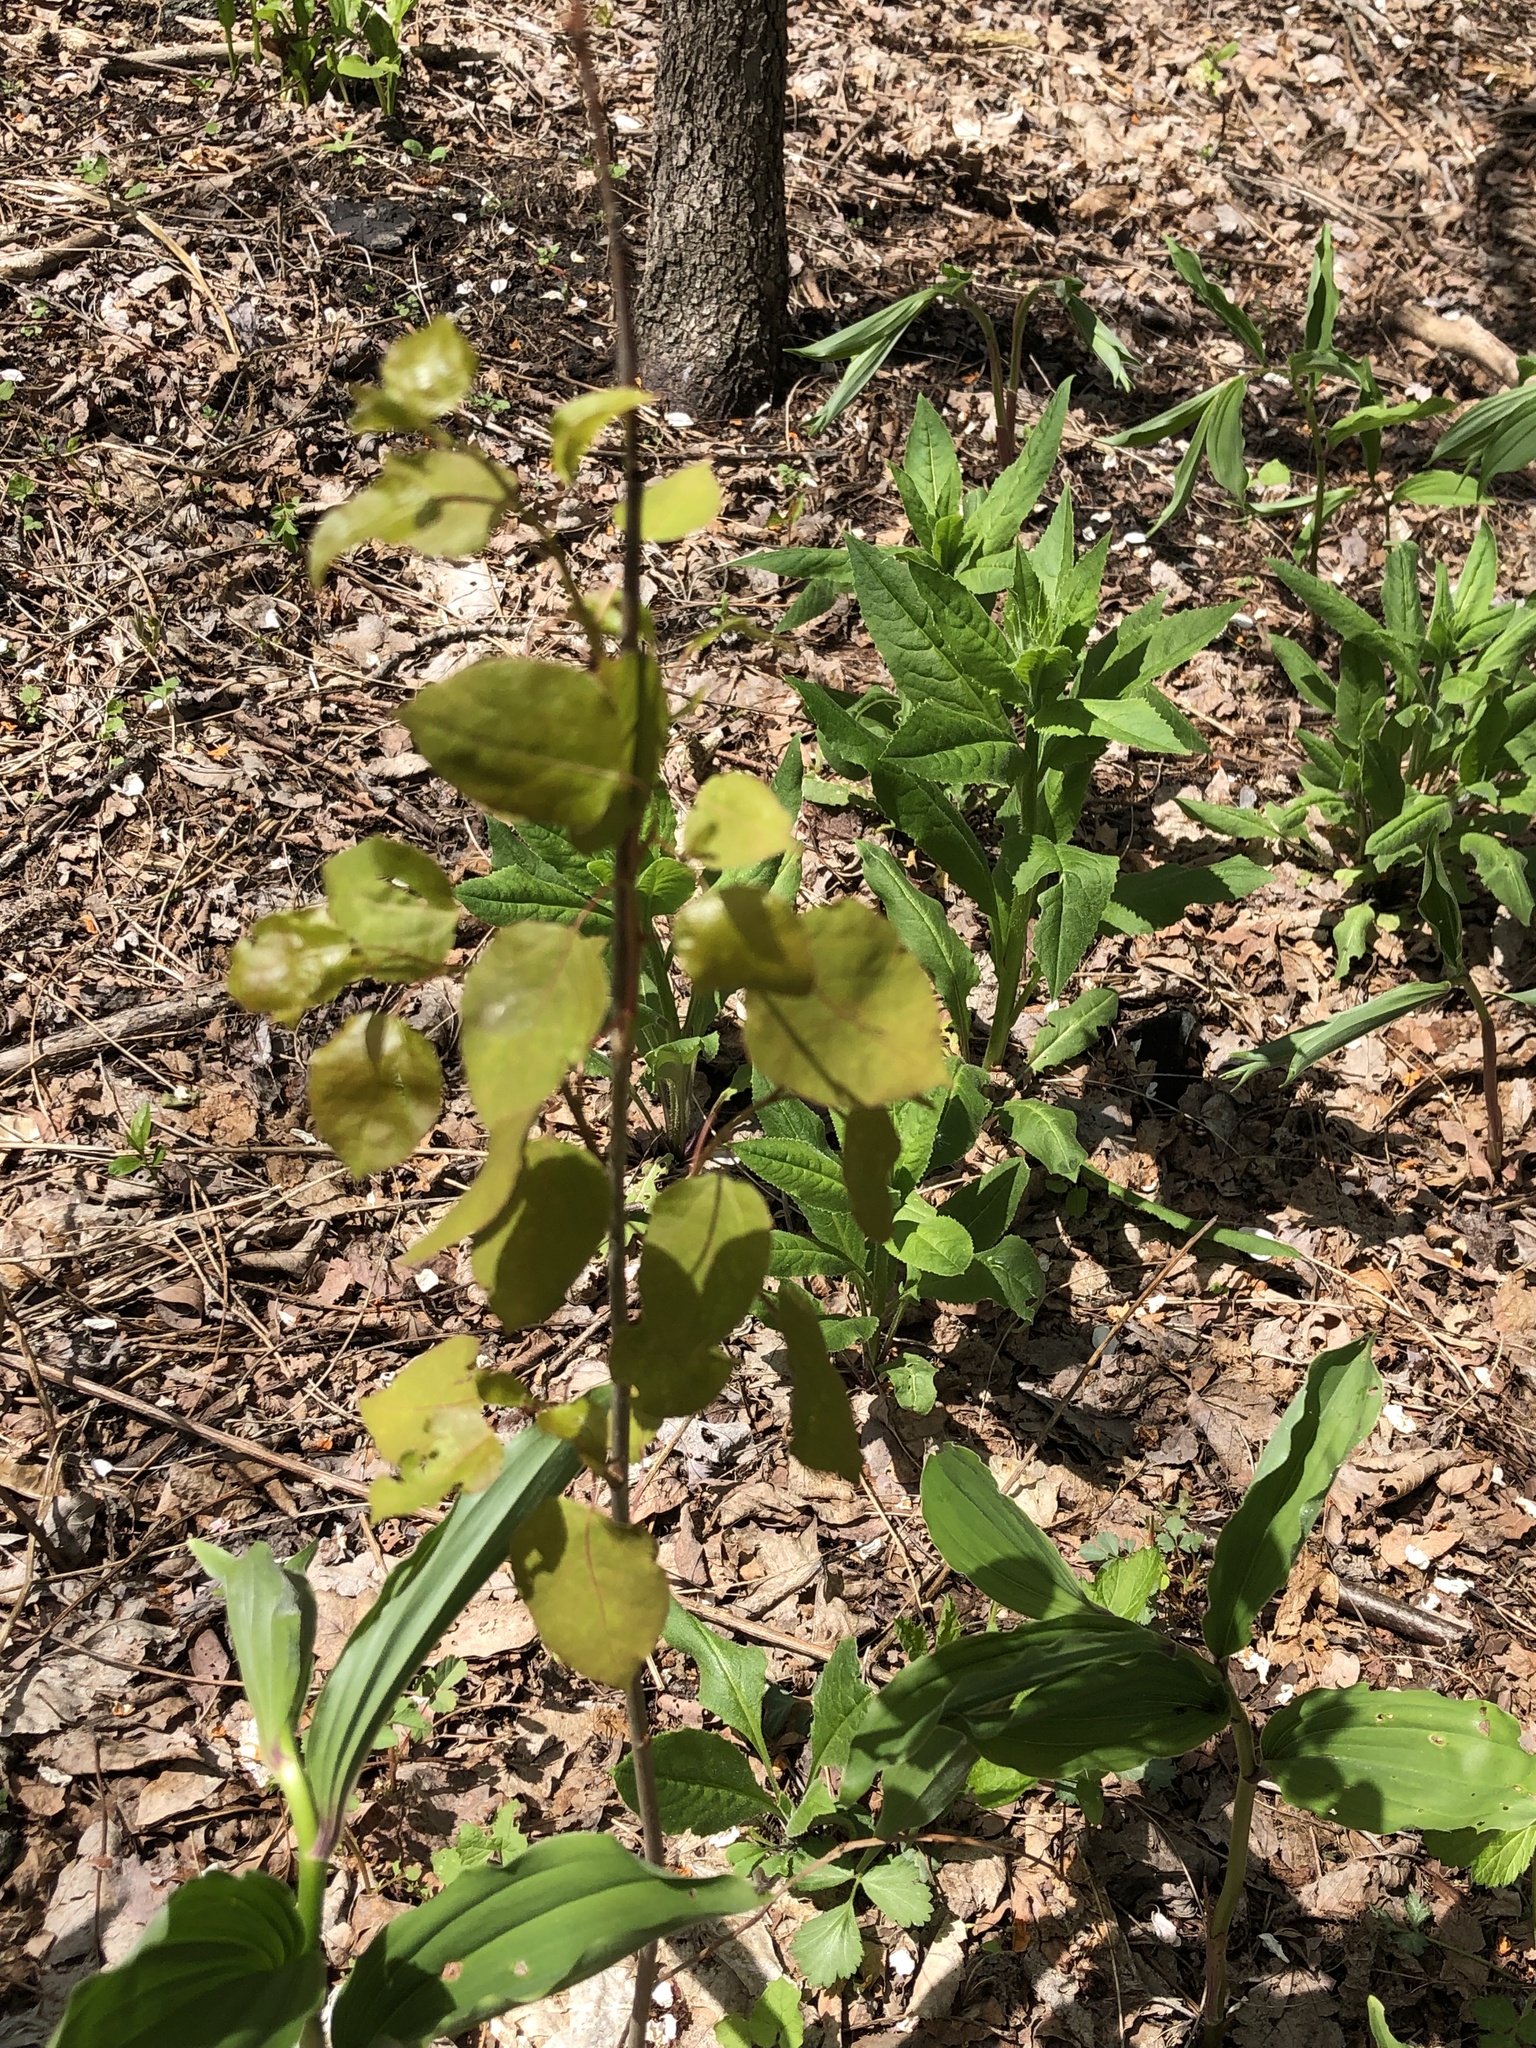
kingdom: Plantae
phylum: Tracheophyta
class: Magnoliopsida
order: Malpighiales
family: Salicaceae
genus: Populus
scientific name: Populus tremuloides
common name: Quaking aspen
